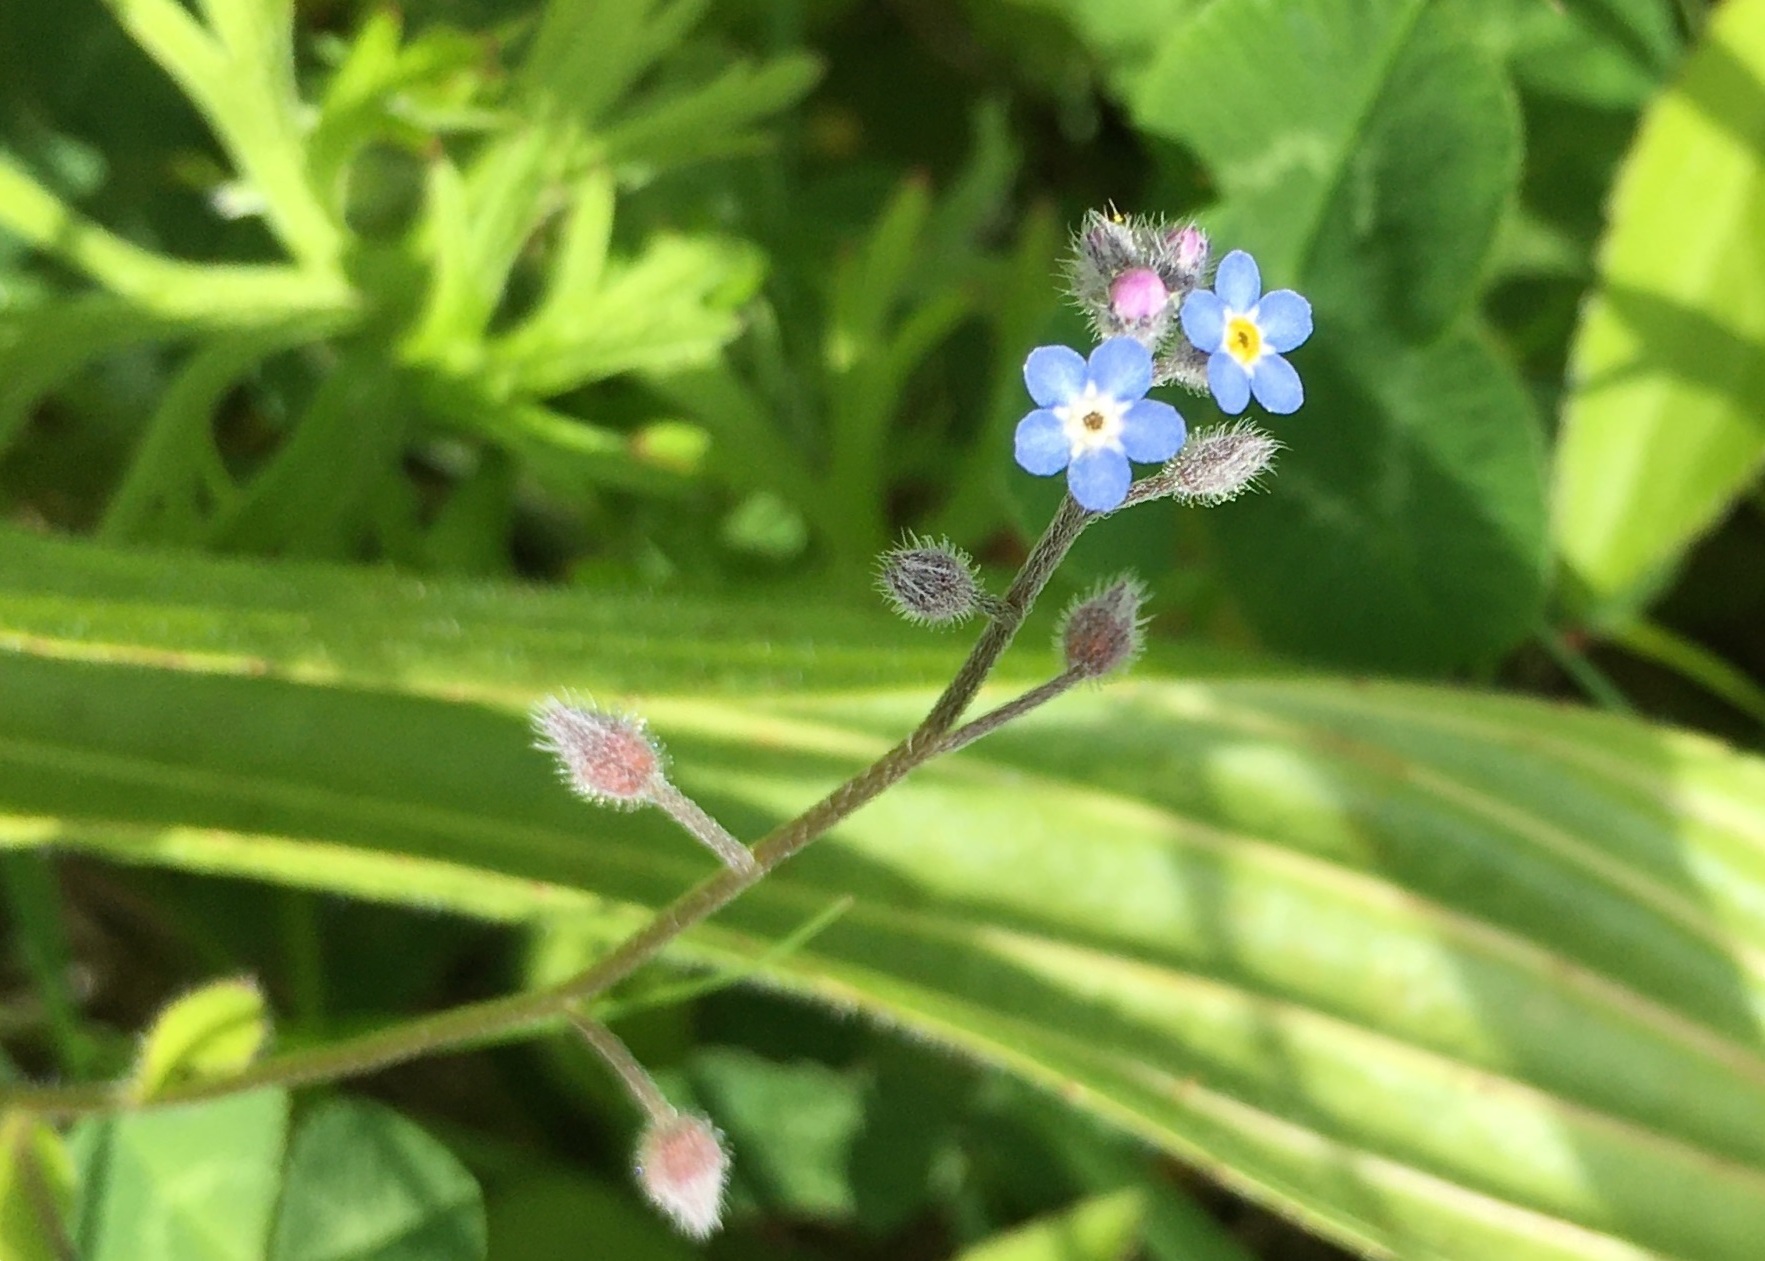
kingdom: Plantae
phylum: Tracheophyta
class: Magnoliopsida
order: Boraginales
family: Boraginaceae
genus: Myosotis
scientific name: Myosotis arvensis
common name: Field forget-me-not
